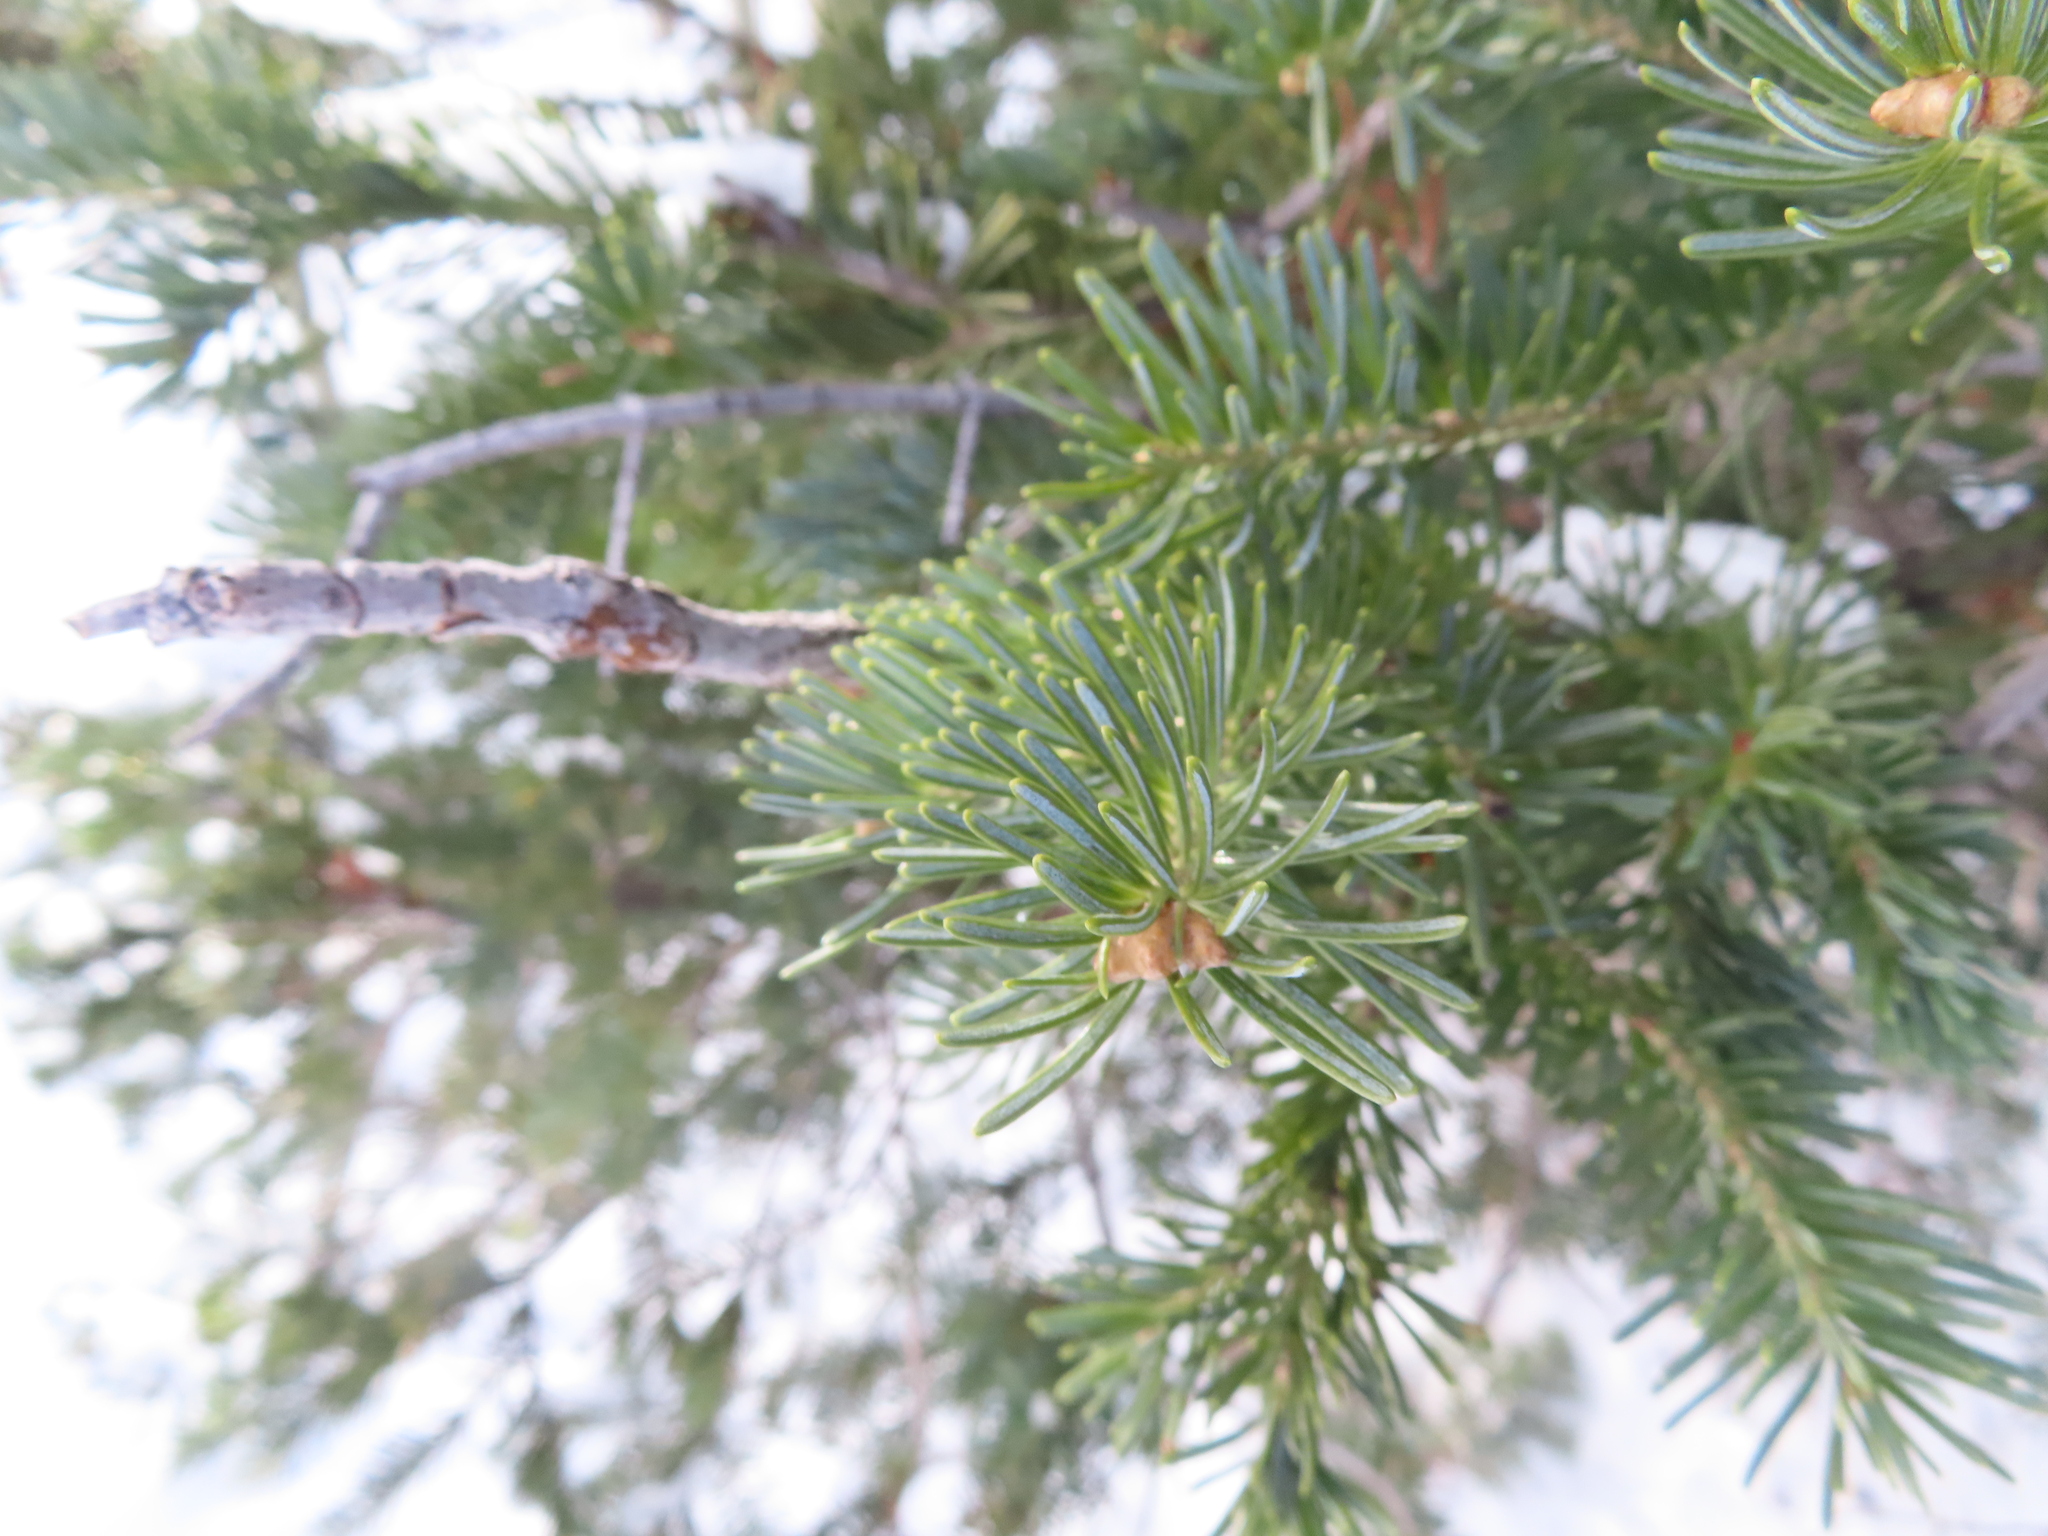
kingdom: Plantae
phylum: Tracheophyta
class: Pinopsida
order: Pinales
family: Pinaceae
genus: Abies
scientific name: Abies lasiocarpa
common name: Subalpine fir
